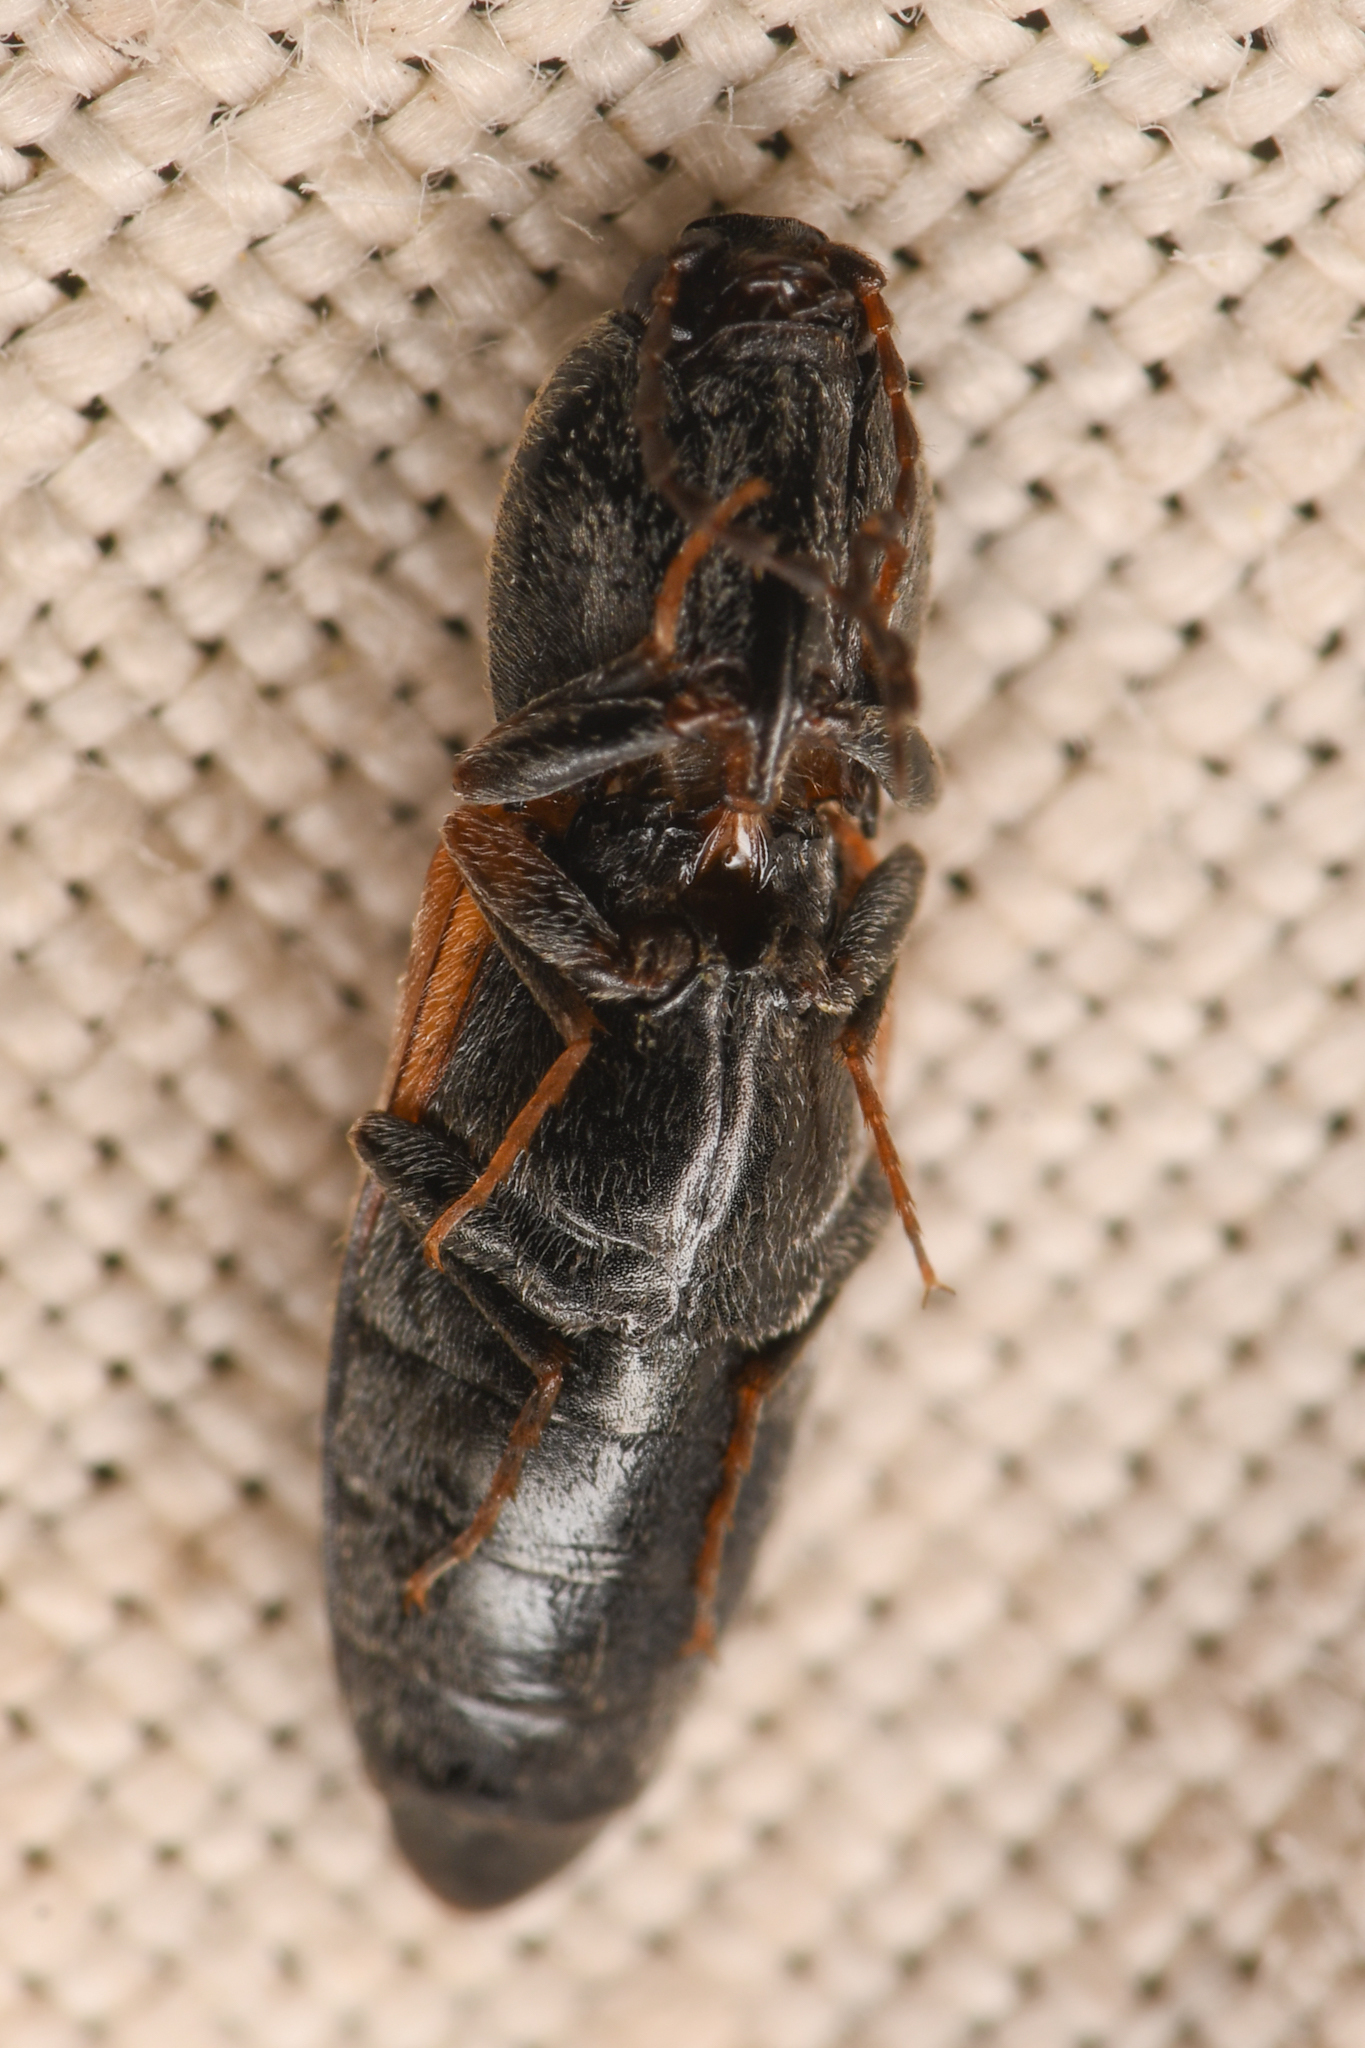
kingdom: Animalia
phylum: Arthropoda
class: Insecta
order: Coleoptera
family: Elateridae
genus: Cardiophorus
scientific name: Cardiophorus edwardsi
